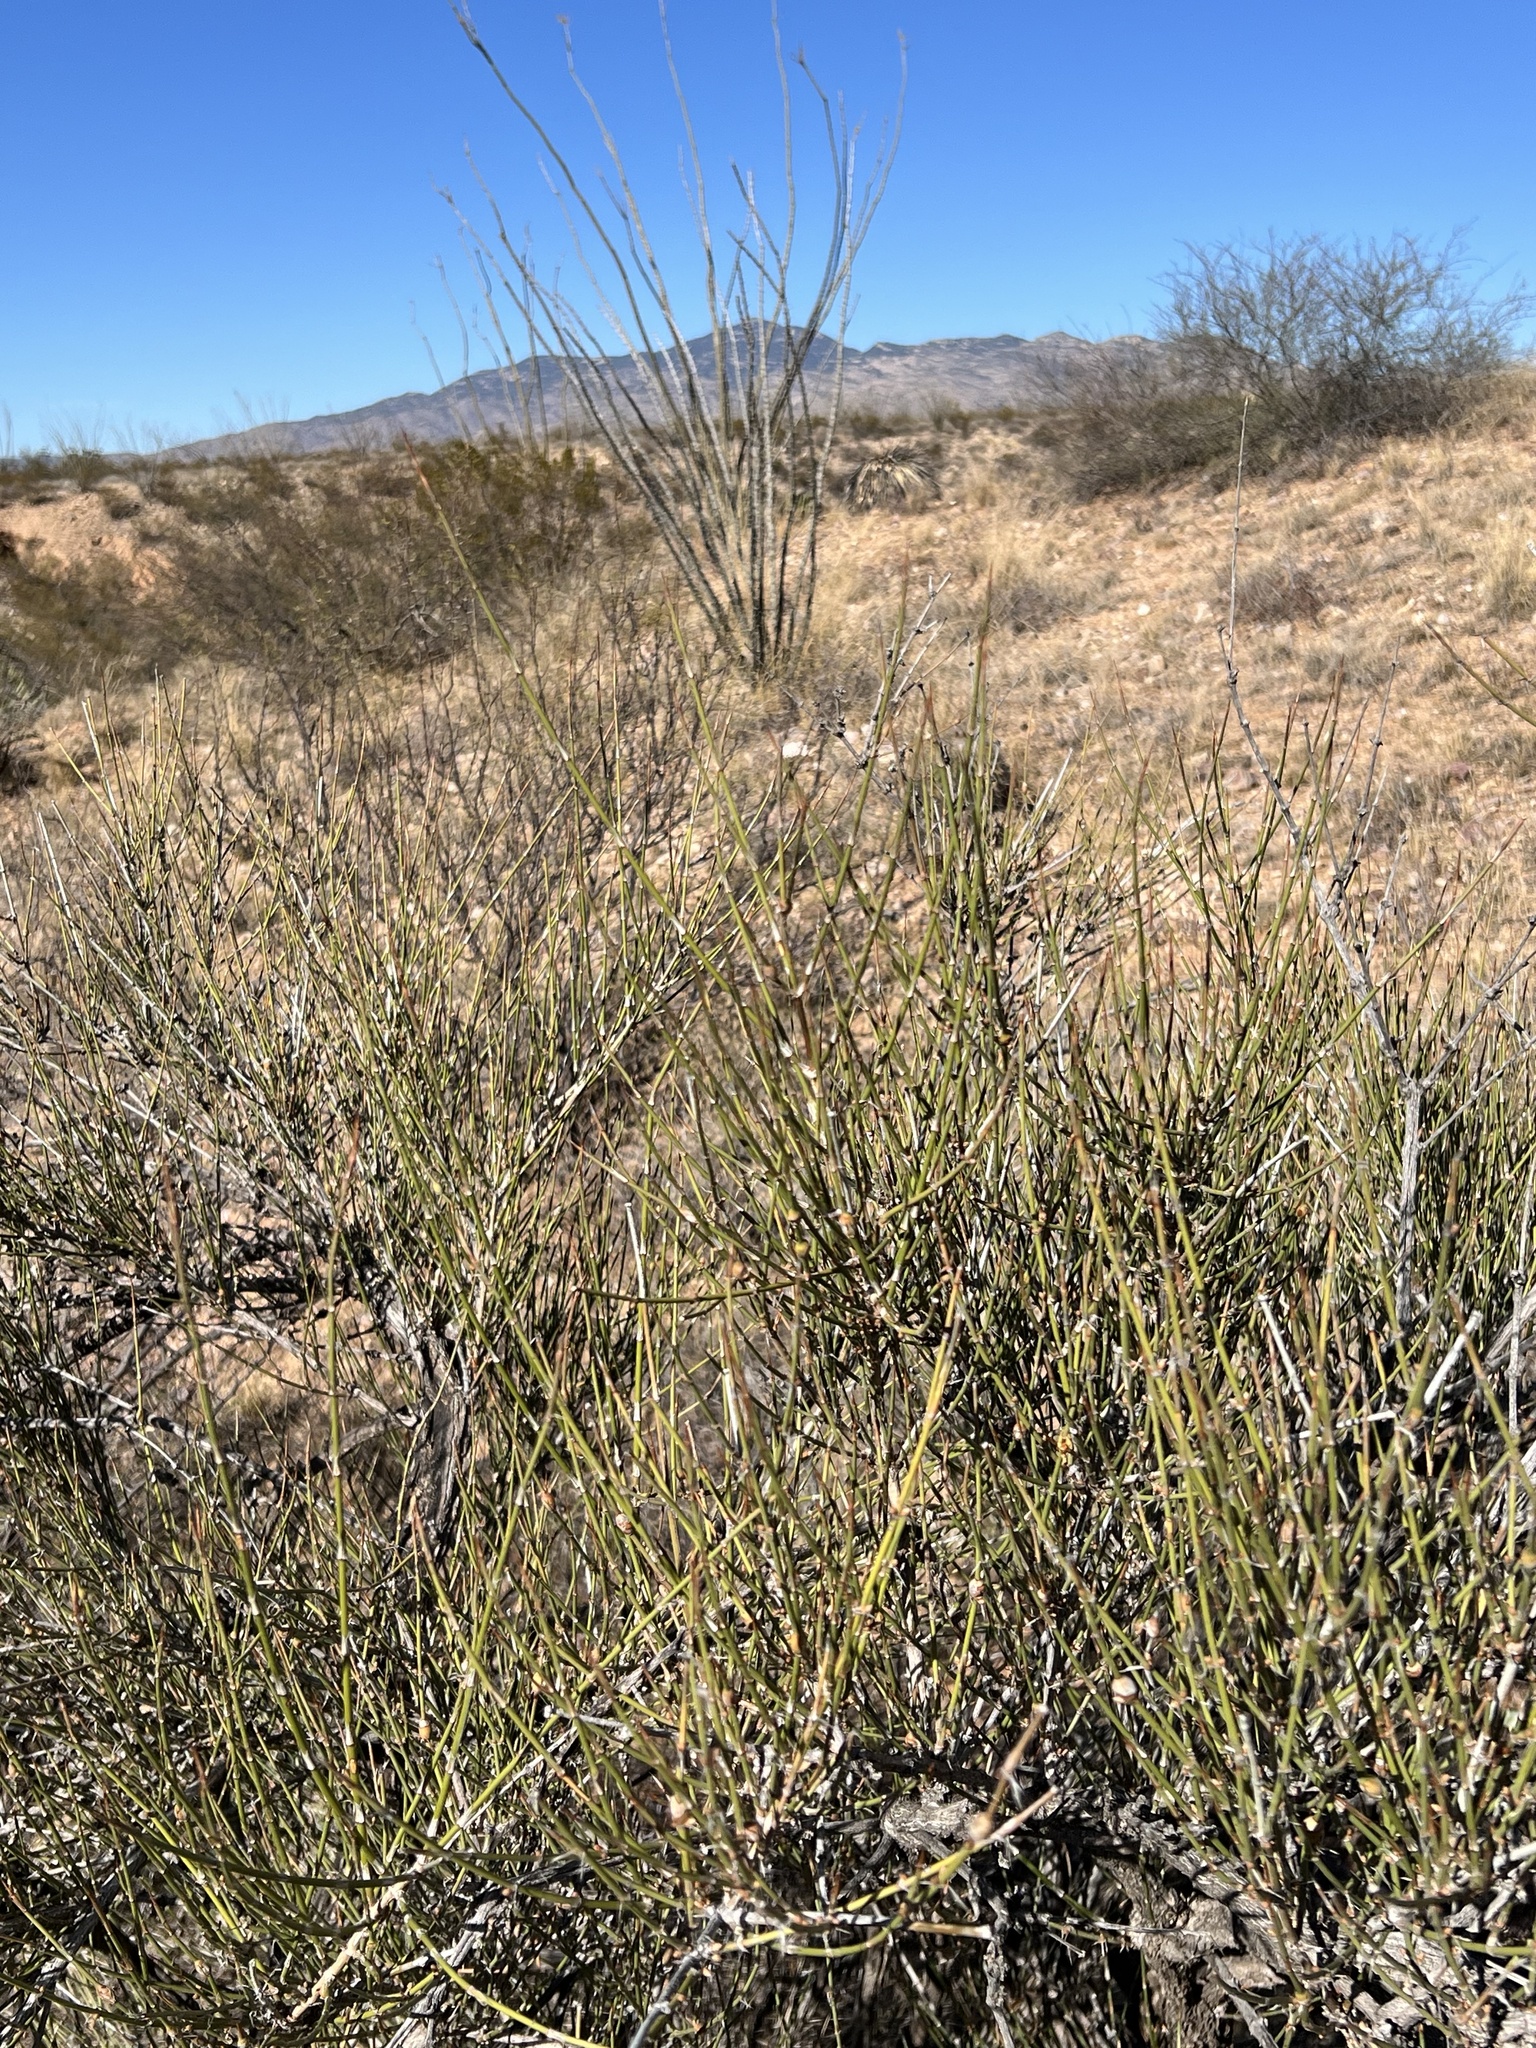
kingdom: Plantae
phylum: Tracheophyta
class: Gnetopsida
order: Ephedrales
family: Ephedraceae
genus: Ephedra
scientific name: Ephedra trifurca
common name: Mexican-tea
